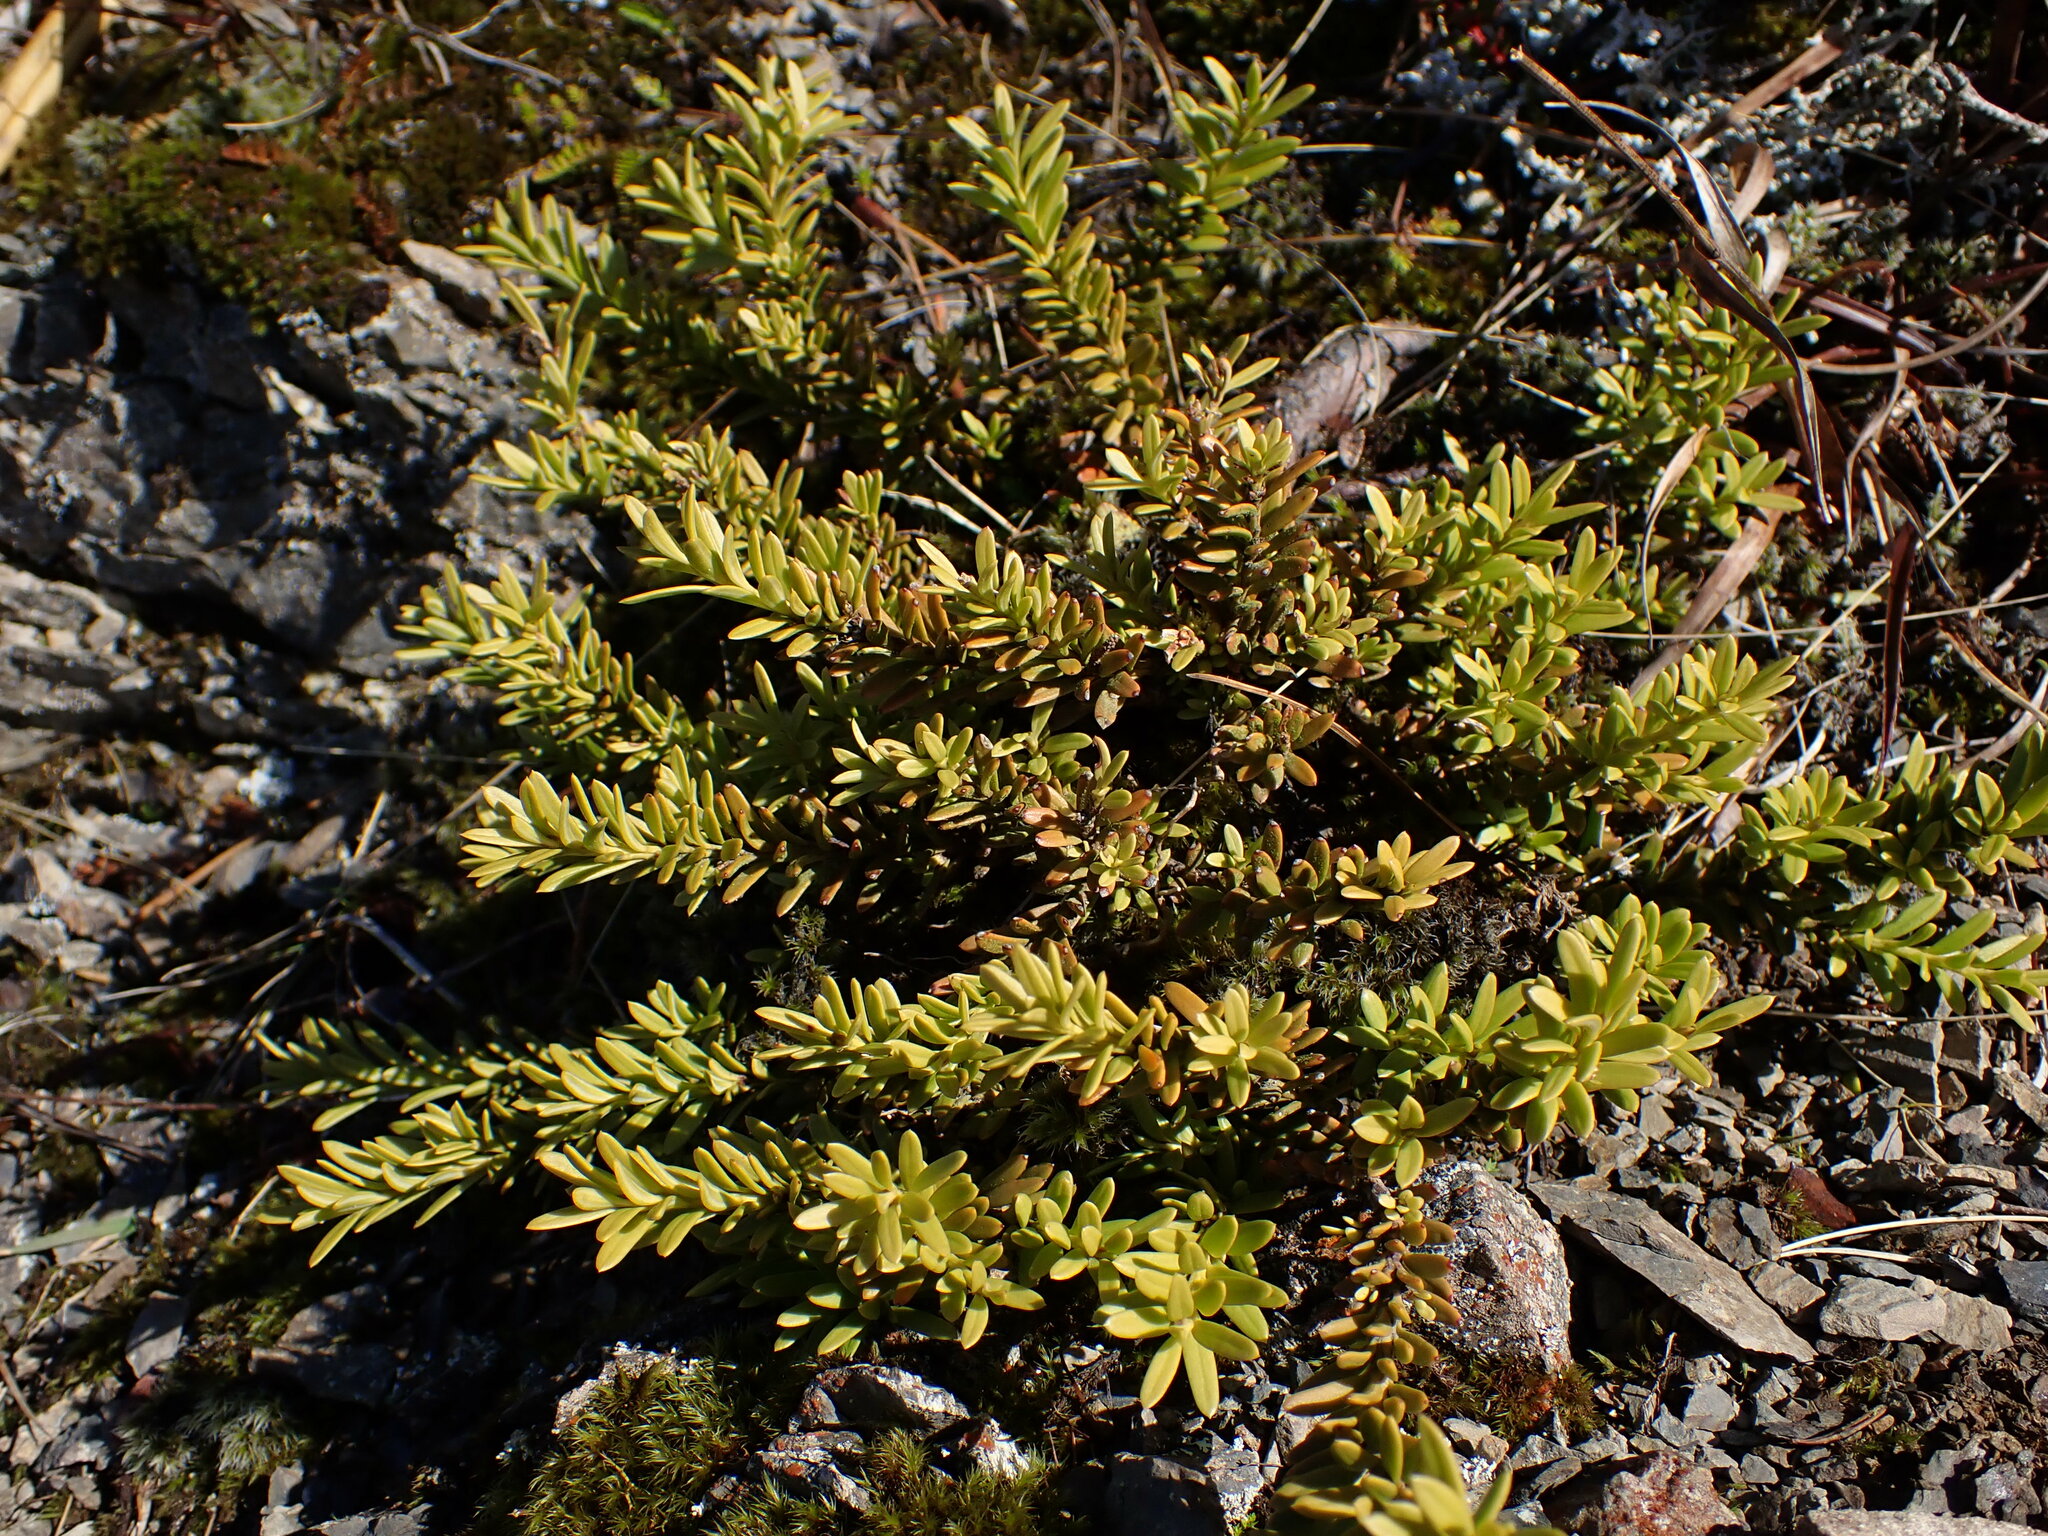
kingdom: Plantae
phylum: Tracheophyta
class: Pinopsida
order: Pinales
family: Podocarpaceae
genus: Podocarpus
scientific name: Podocarpus nivalis
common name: Alpine totara
